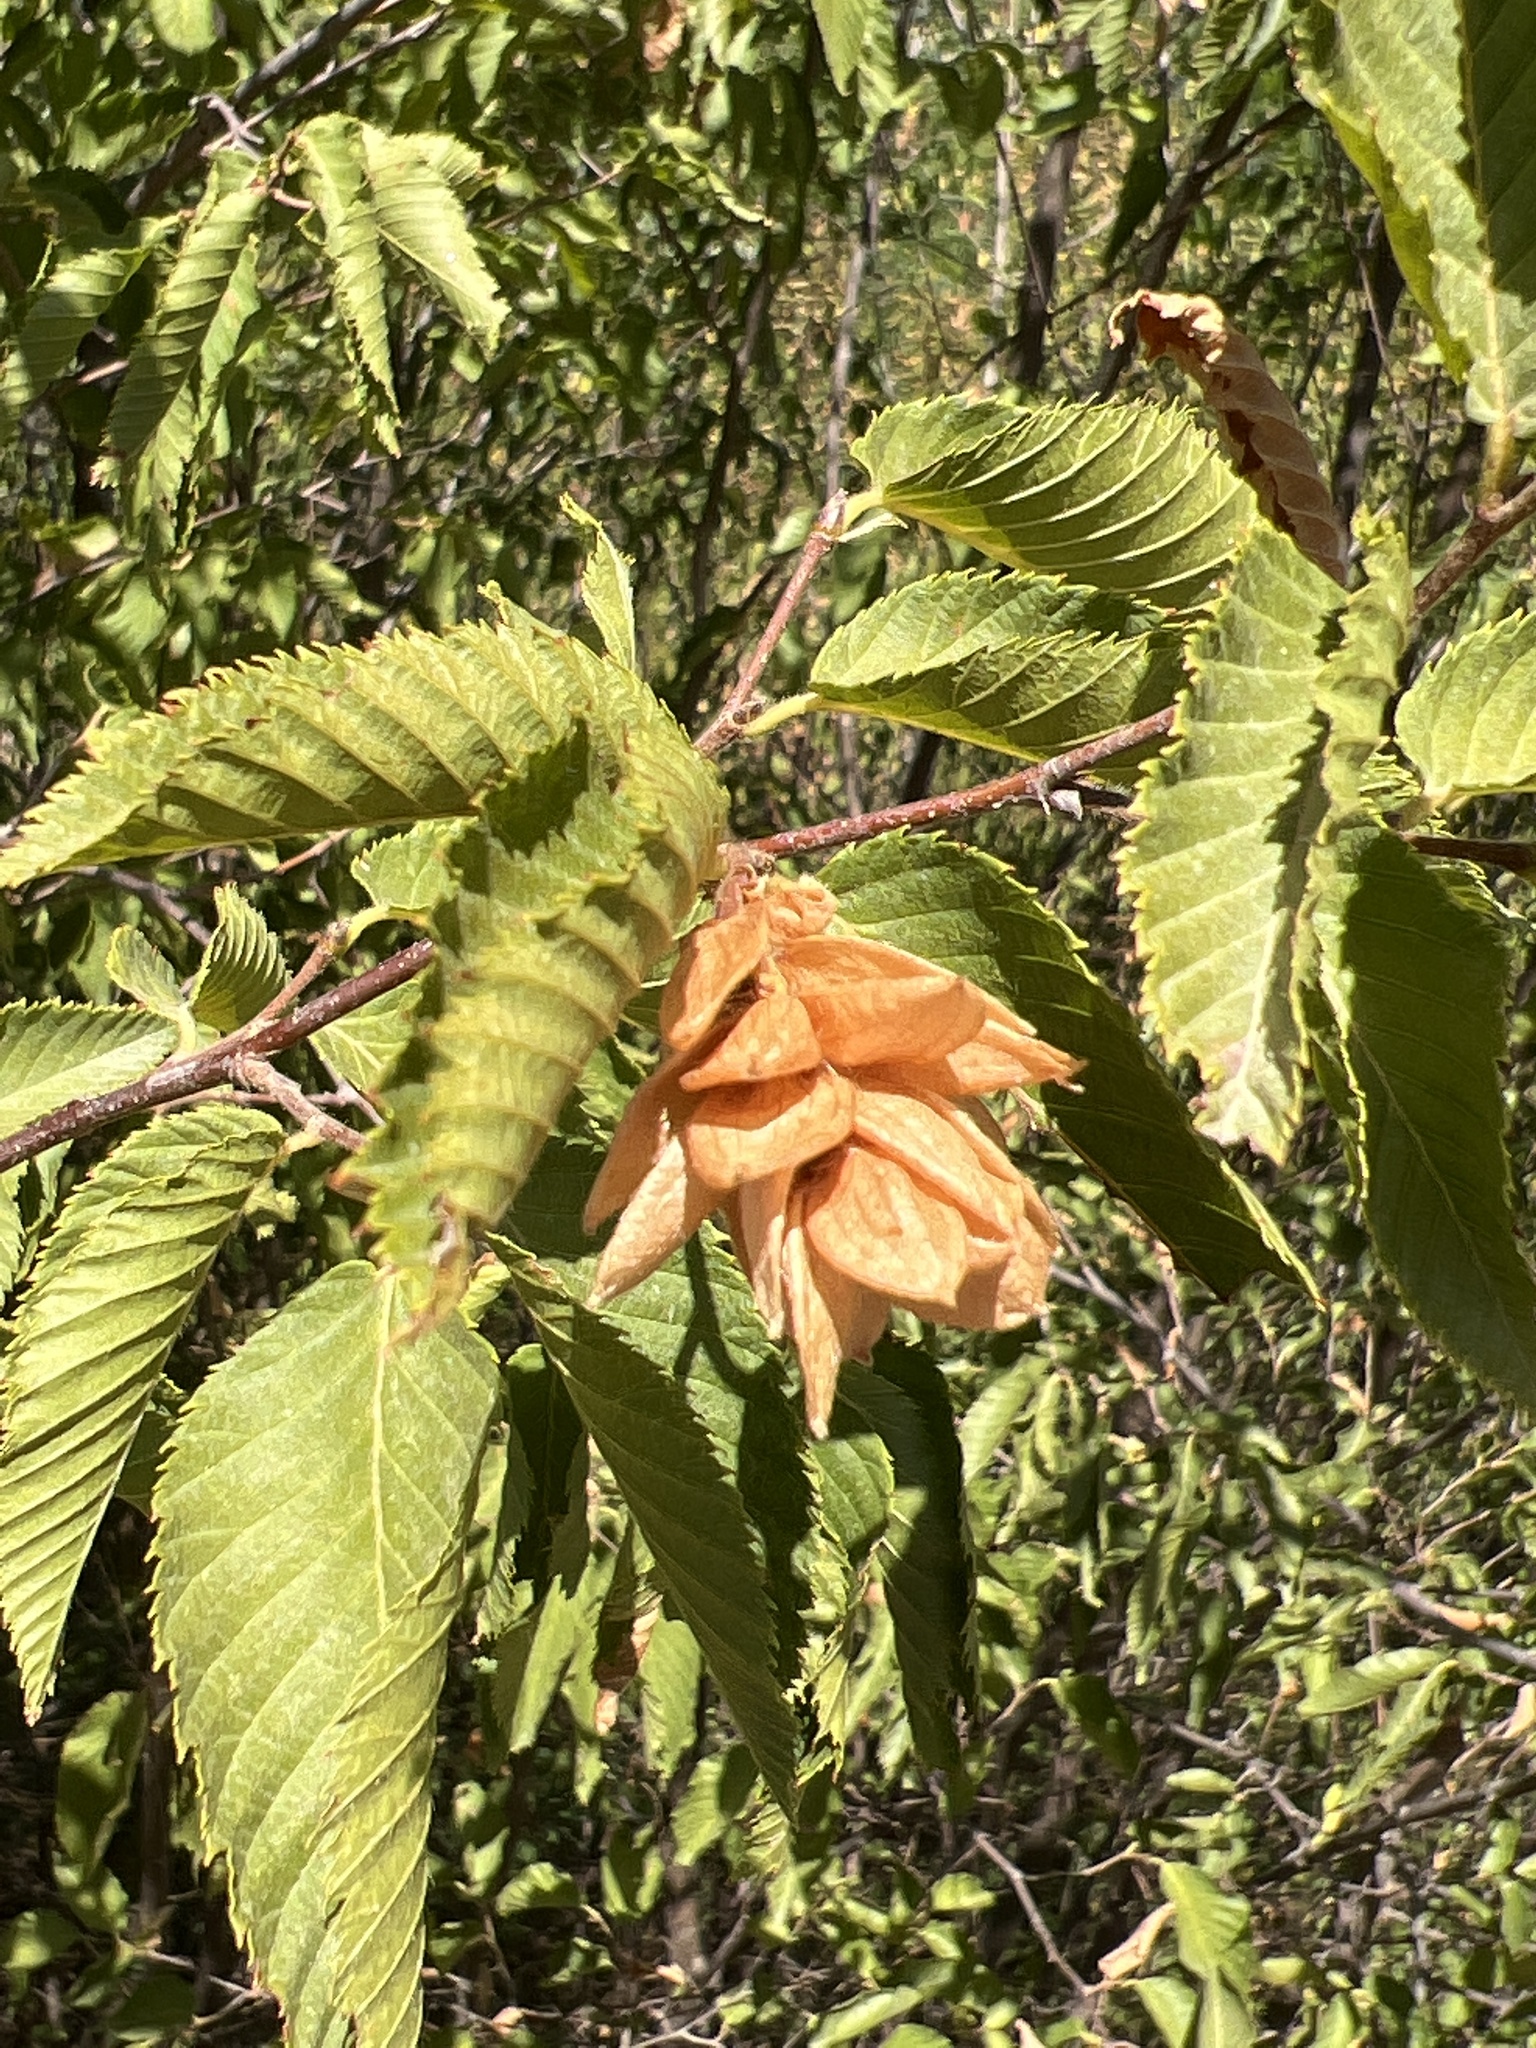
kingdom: Plantae
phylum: Tracheophyta
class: Magnoliopsida
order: Fagales
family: Betulaceae
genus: Ostrya
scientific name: Ostrya carpinifolia
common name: European hop-hornbeam
